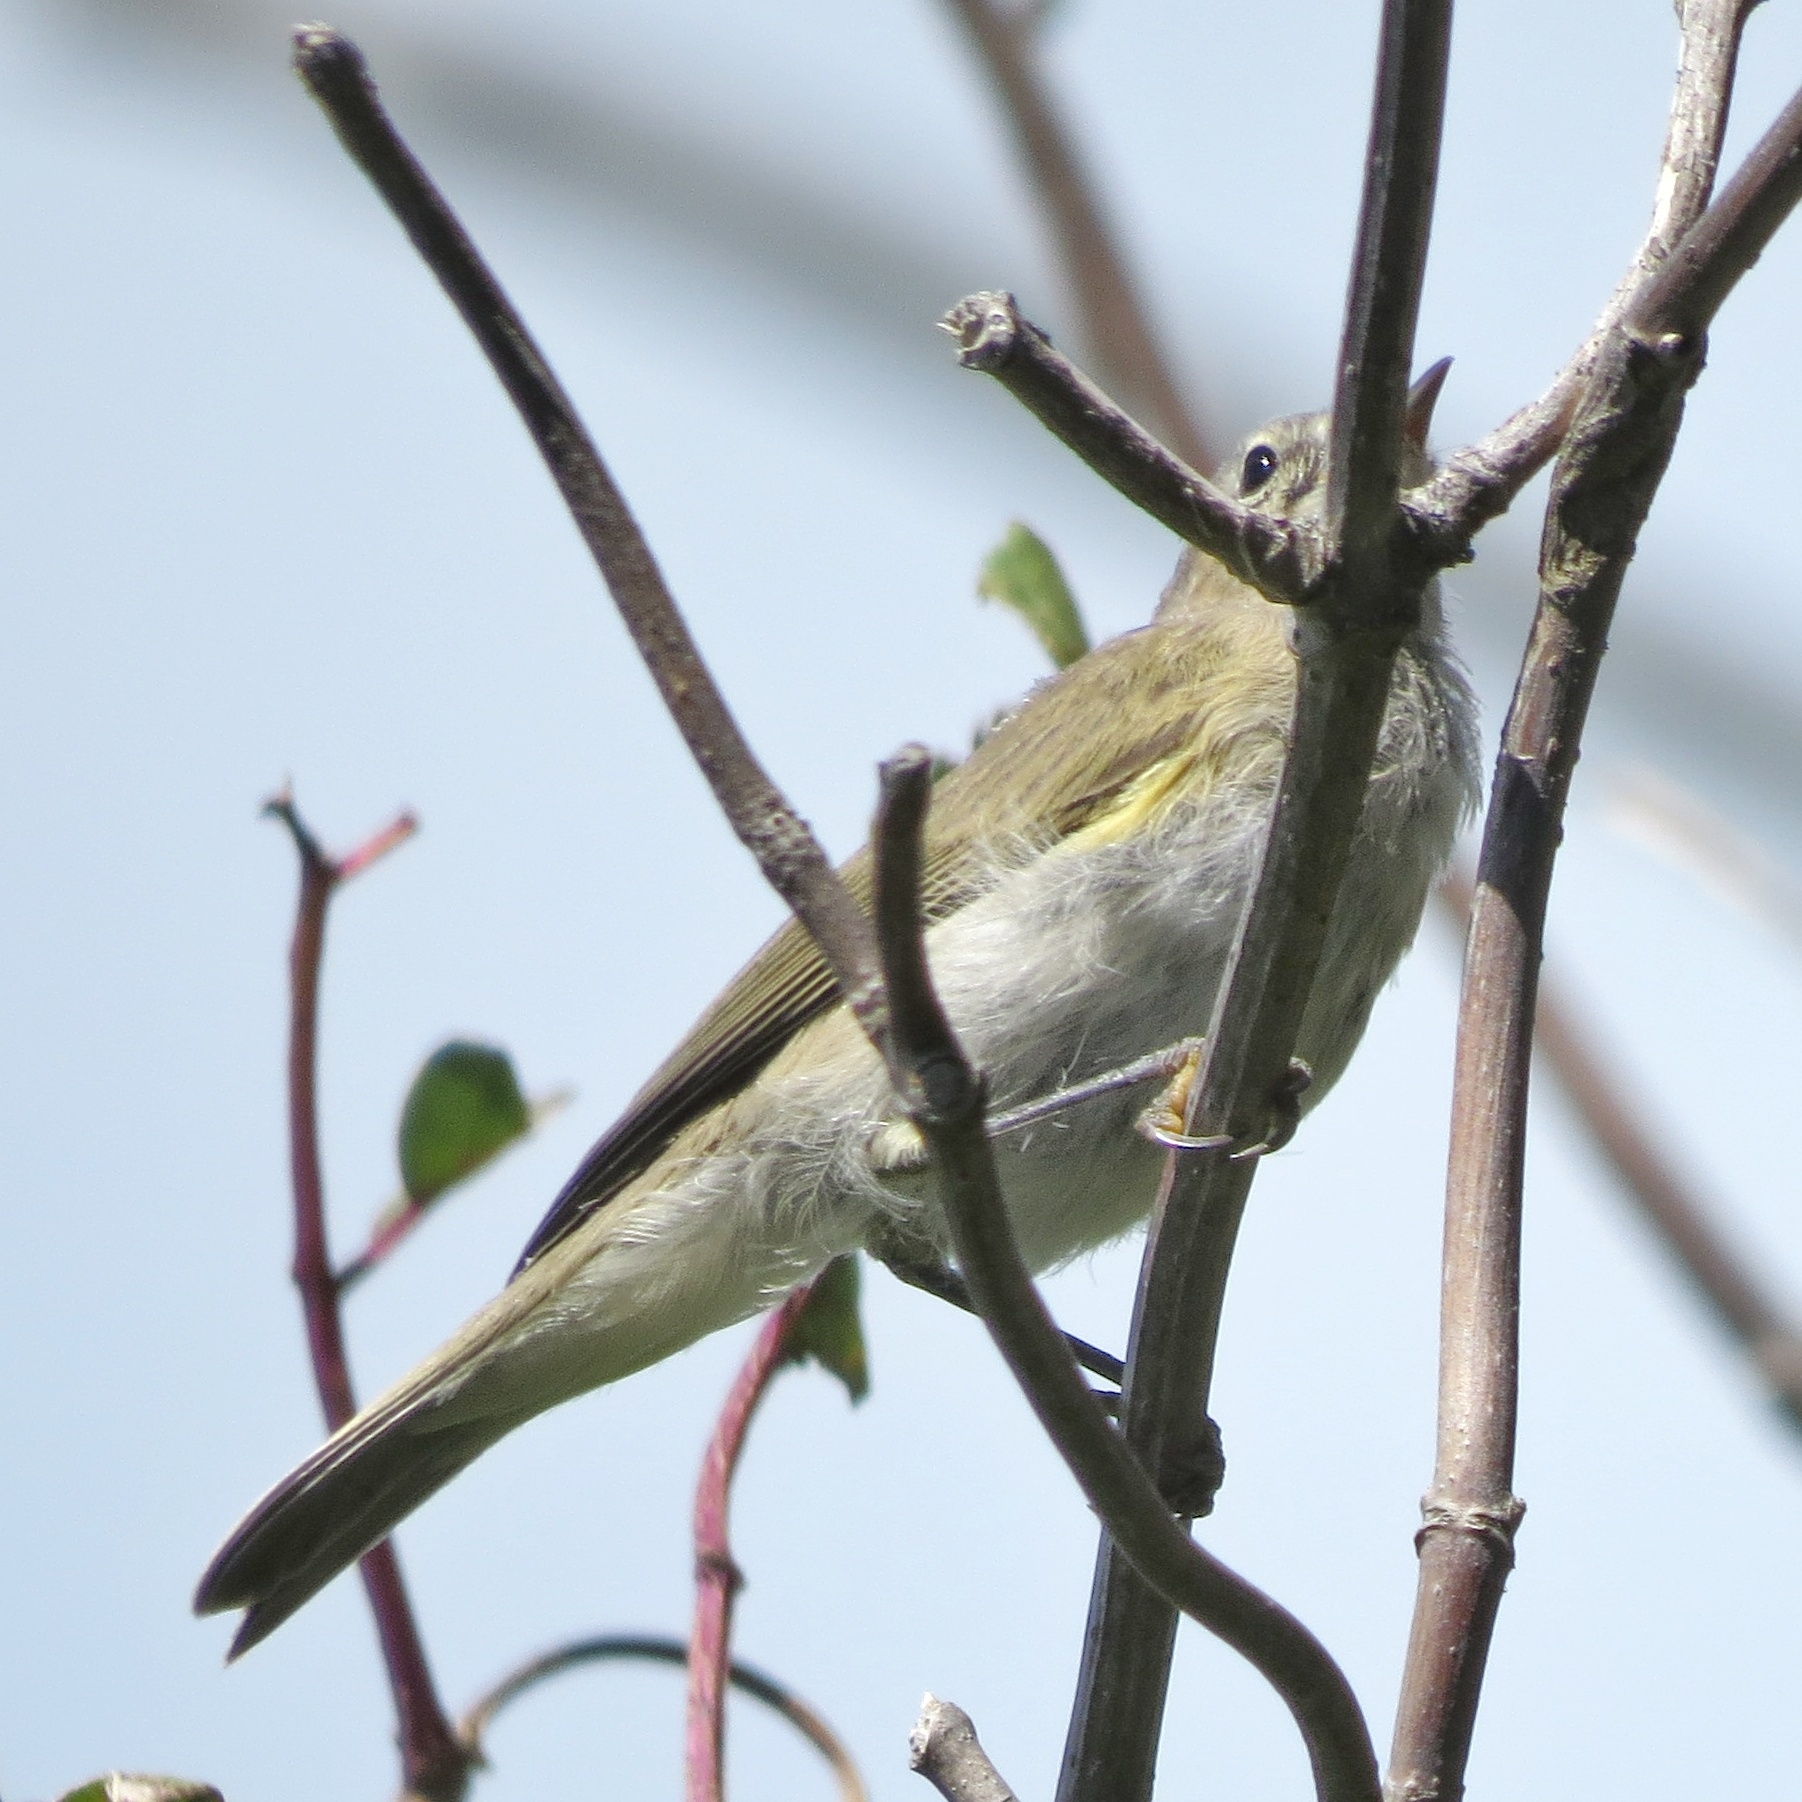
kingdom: Animalia
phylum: Chordata
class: Aves
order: Passeriformes
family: Phylloscopidae
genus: Phylloscopus
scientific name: Phylloscopus collybita
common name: Common chiffchaff
